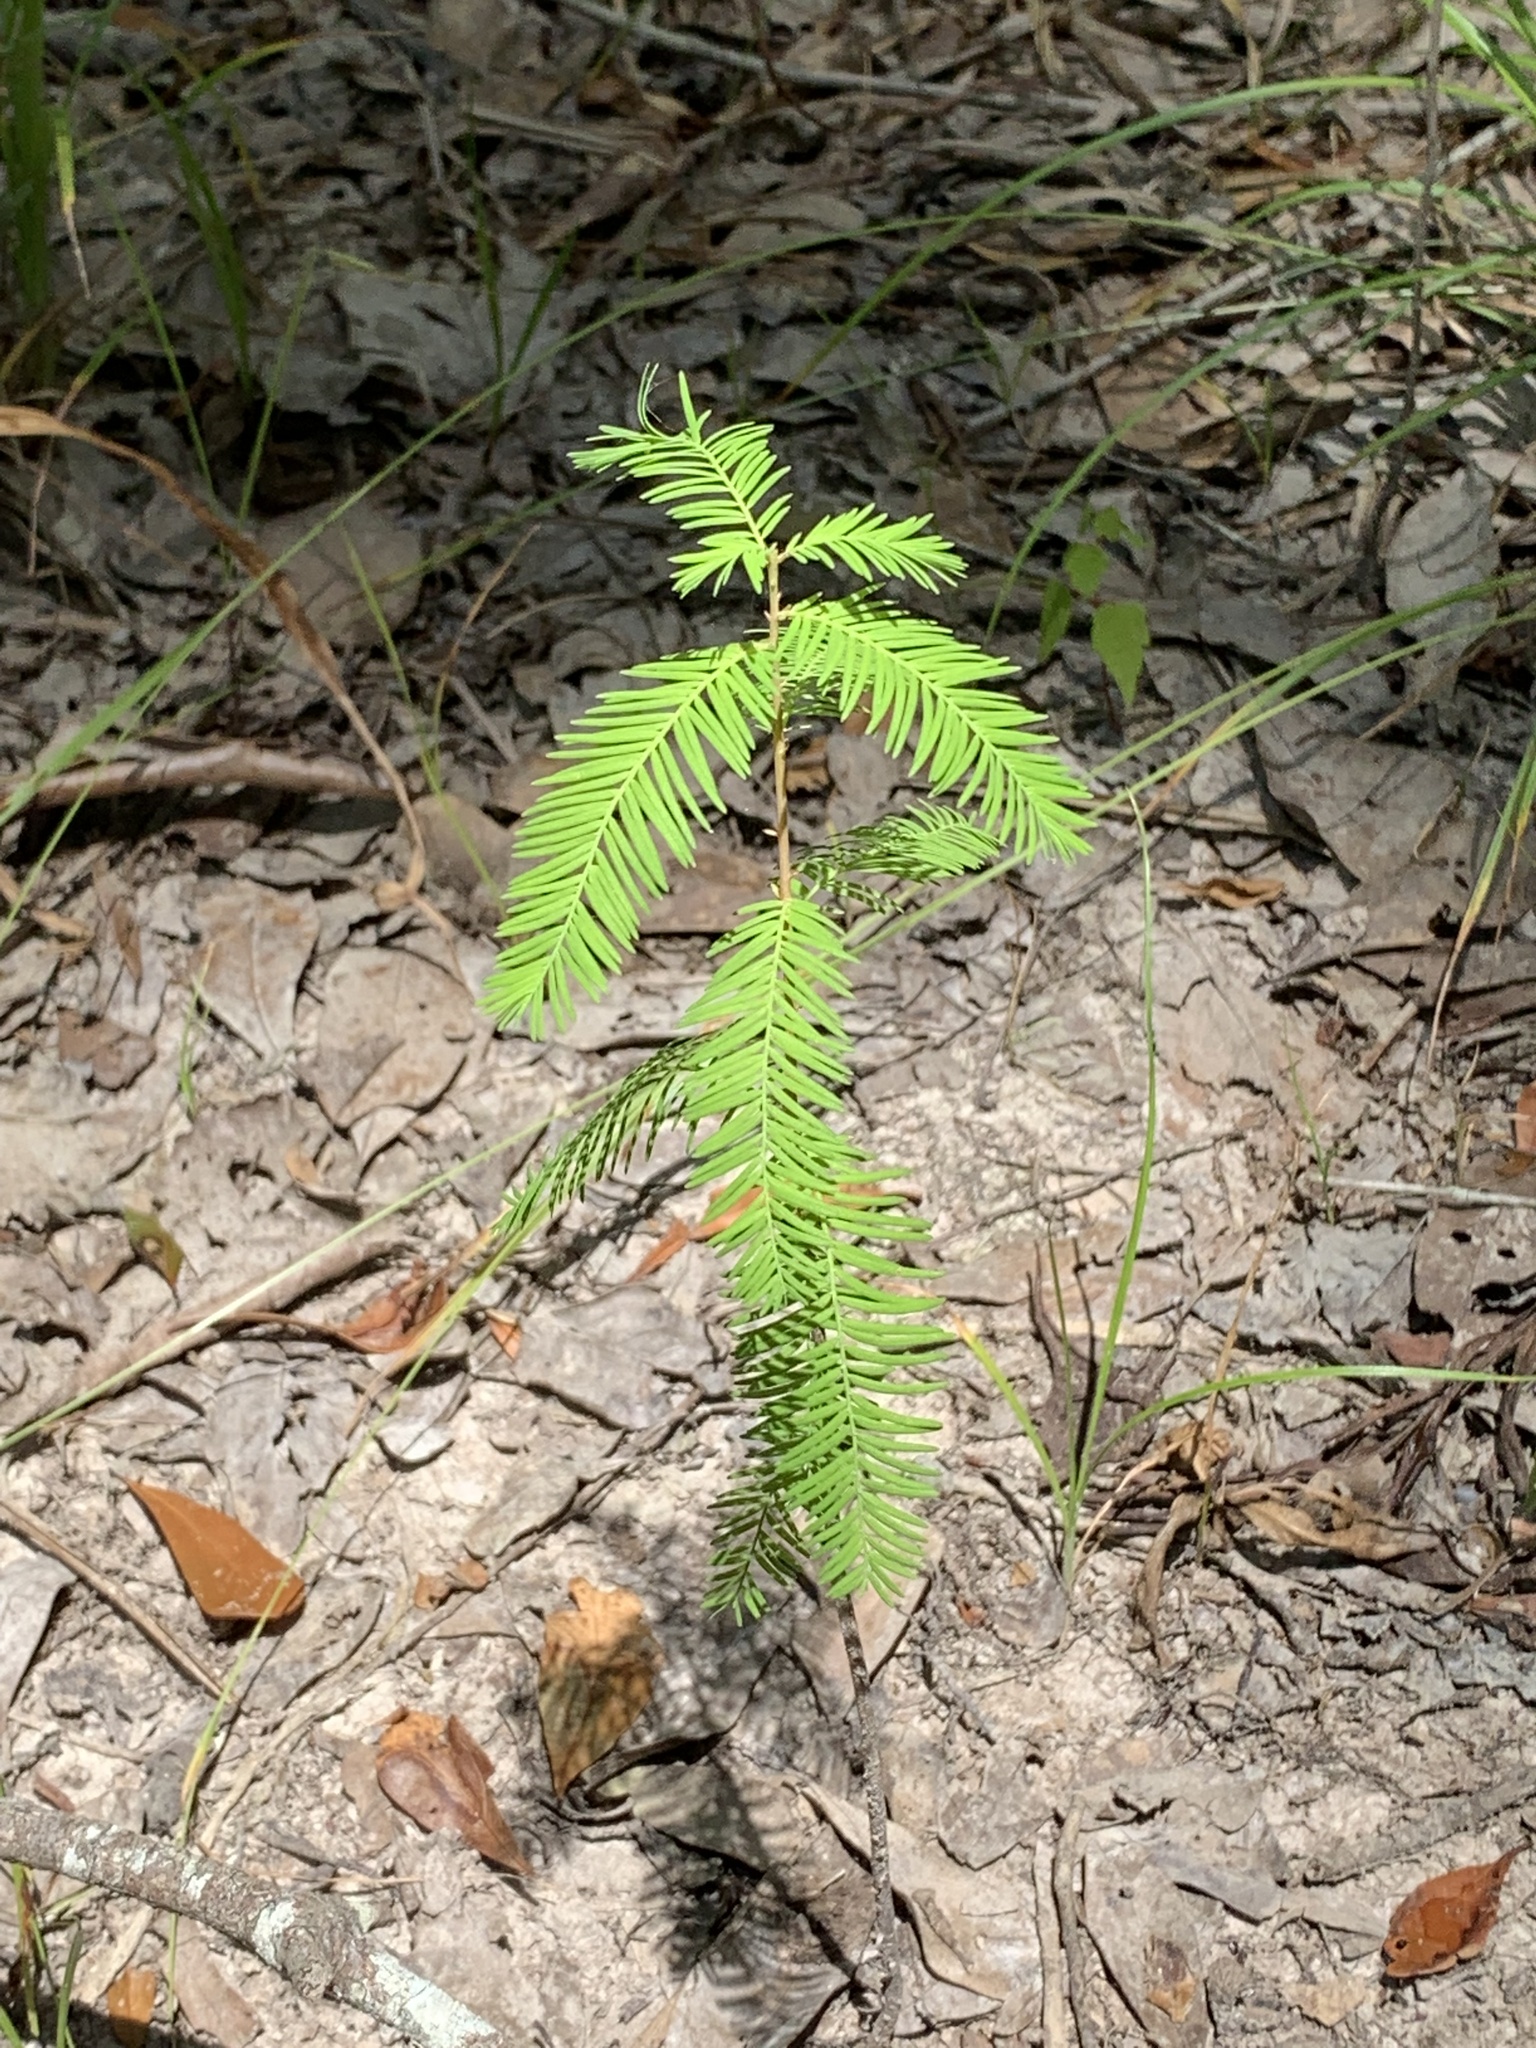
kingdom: Plantae
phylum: Tracheophyta
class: Pinopsida
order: Pinales
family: Cupressaceae
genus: Taxodium
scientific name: Taxodium distichum
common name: Bald cypress
